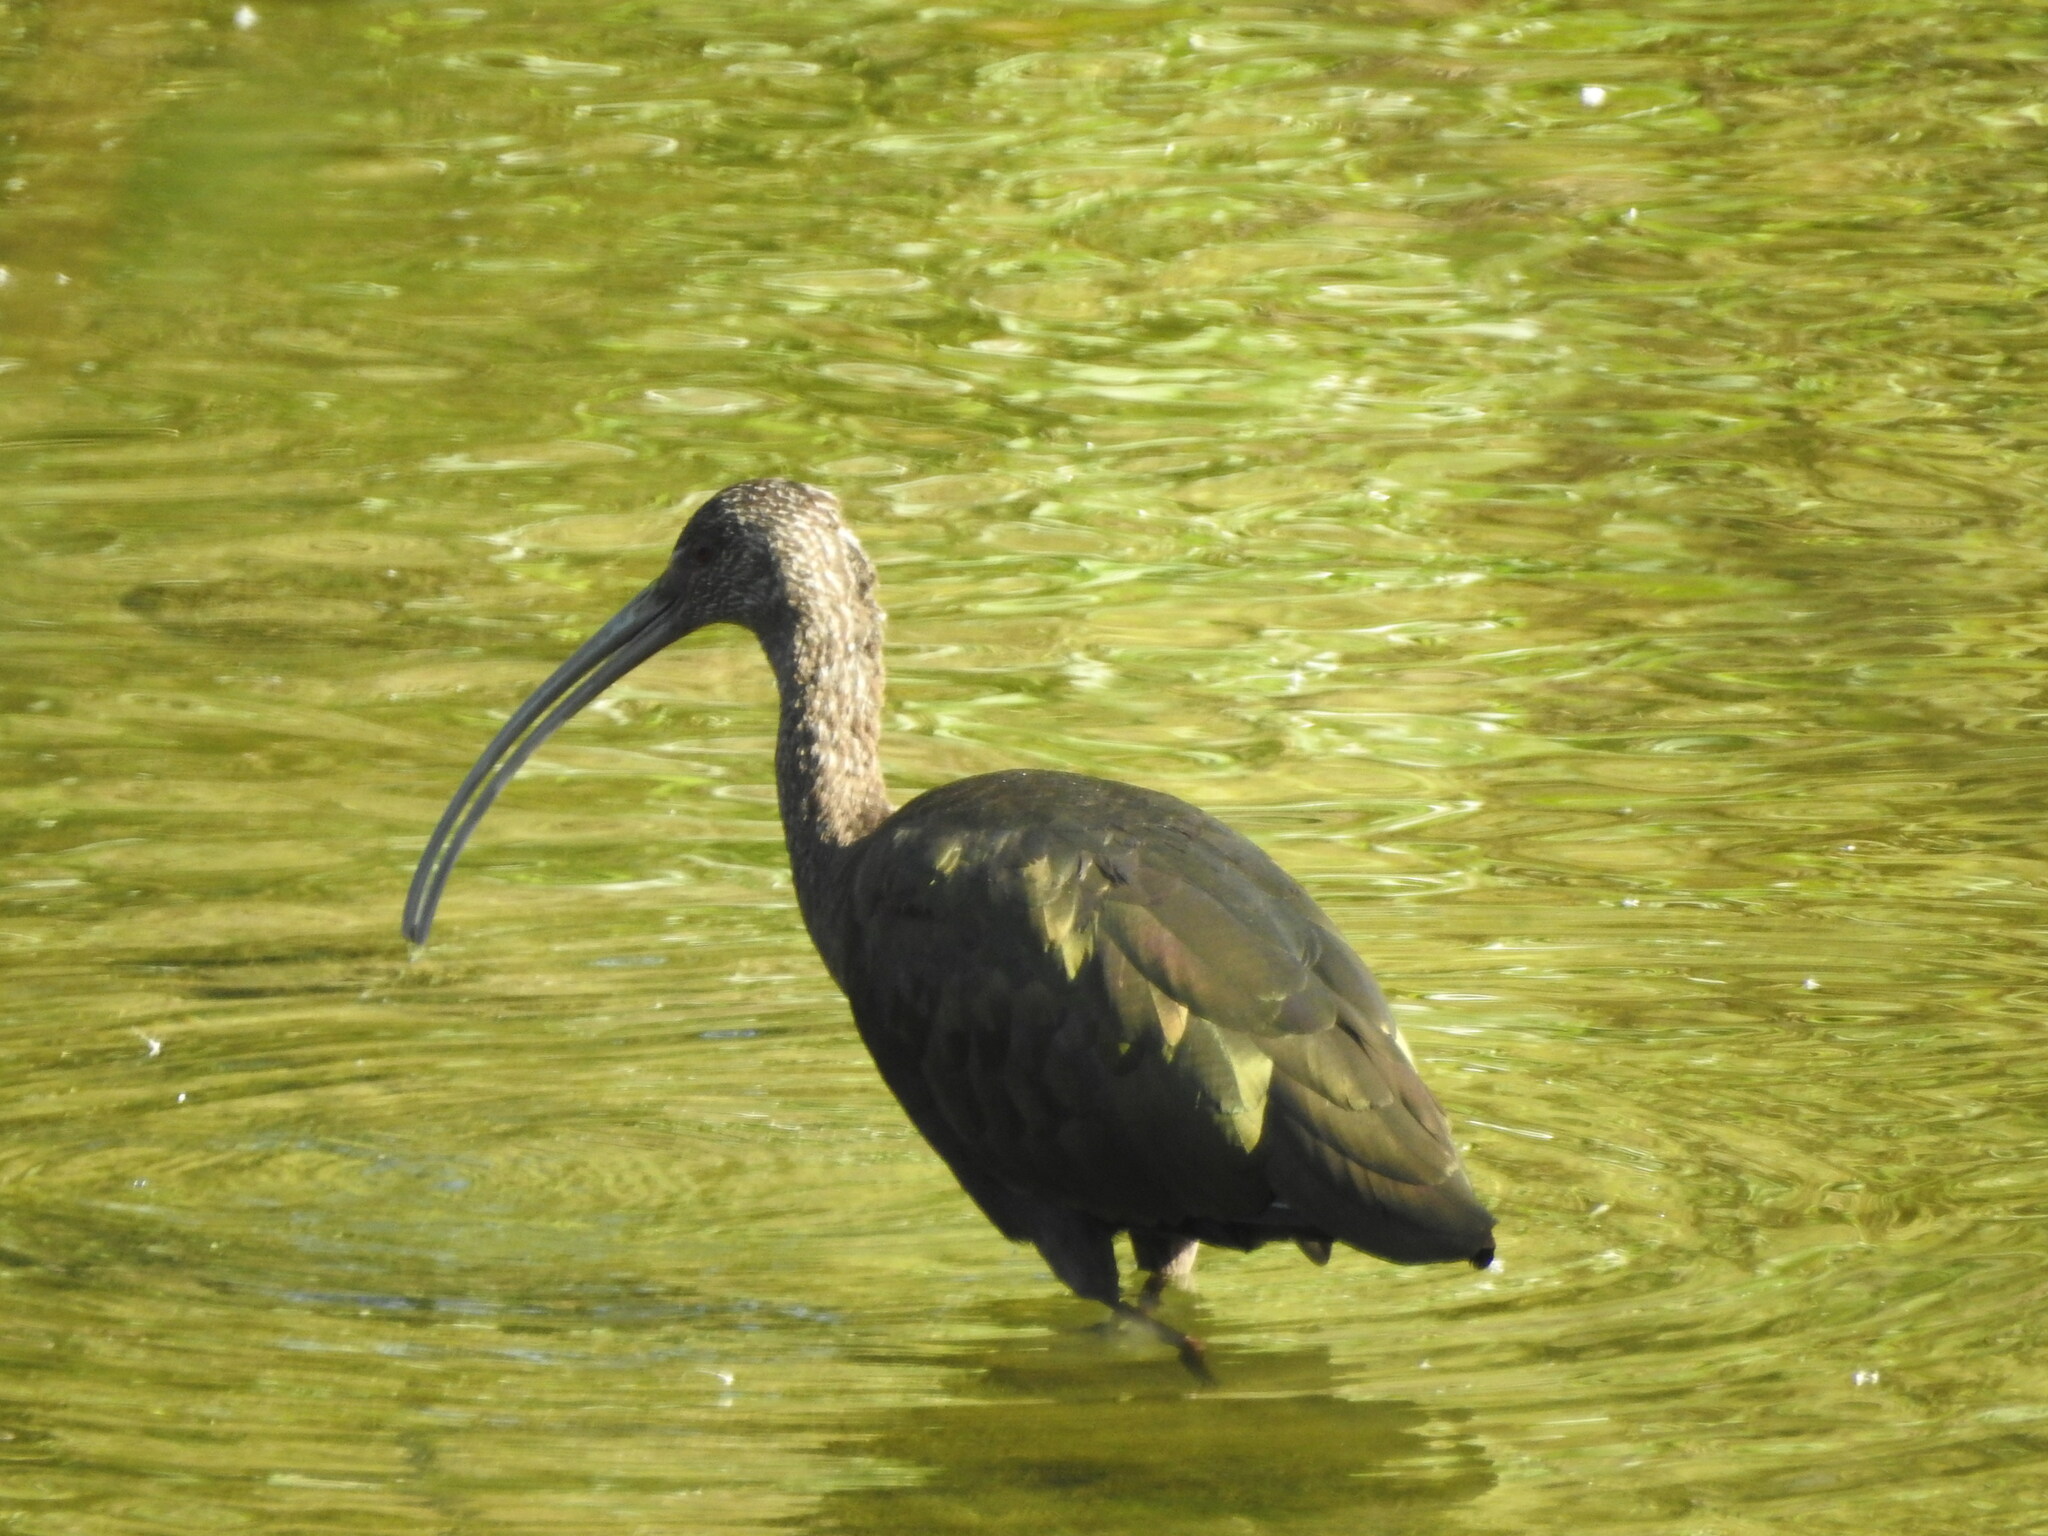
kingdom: Animalia
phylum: Chordata
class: Aves
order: Pelecaniformes
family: Threskiornithidae
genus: Plegadis
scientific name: Plegadis chihi
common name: White-faced ibis
